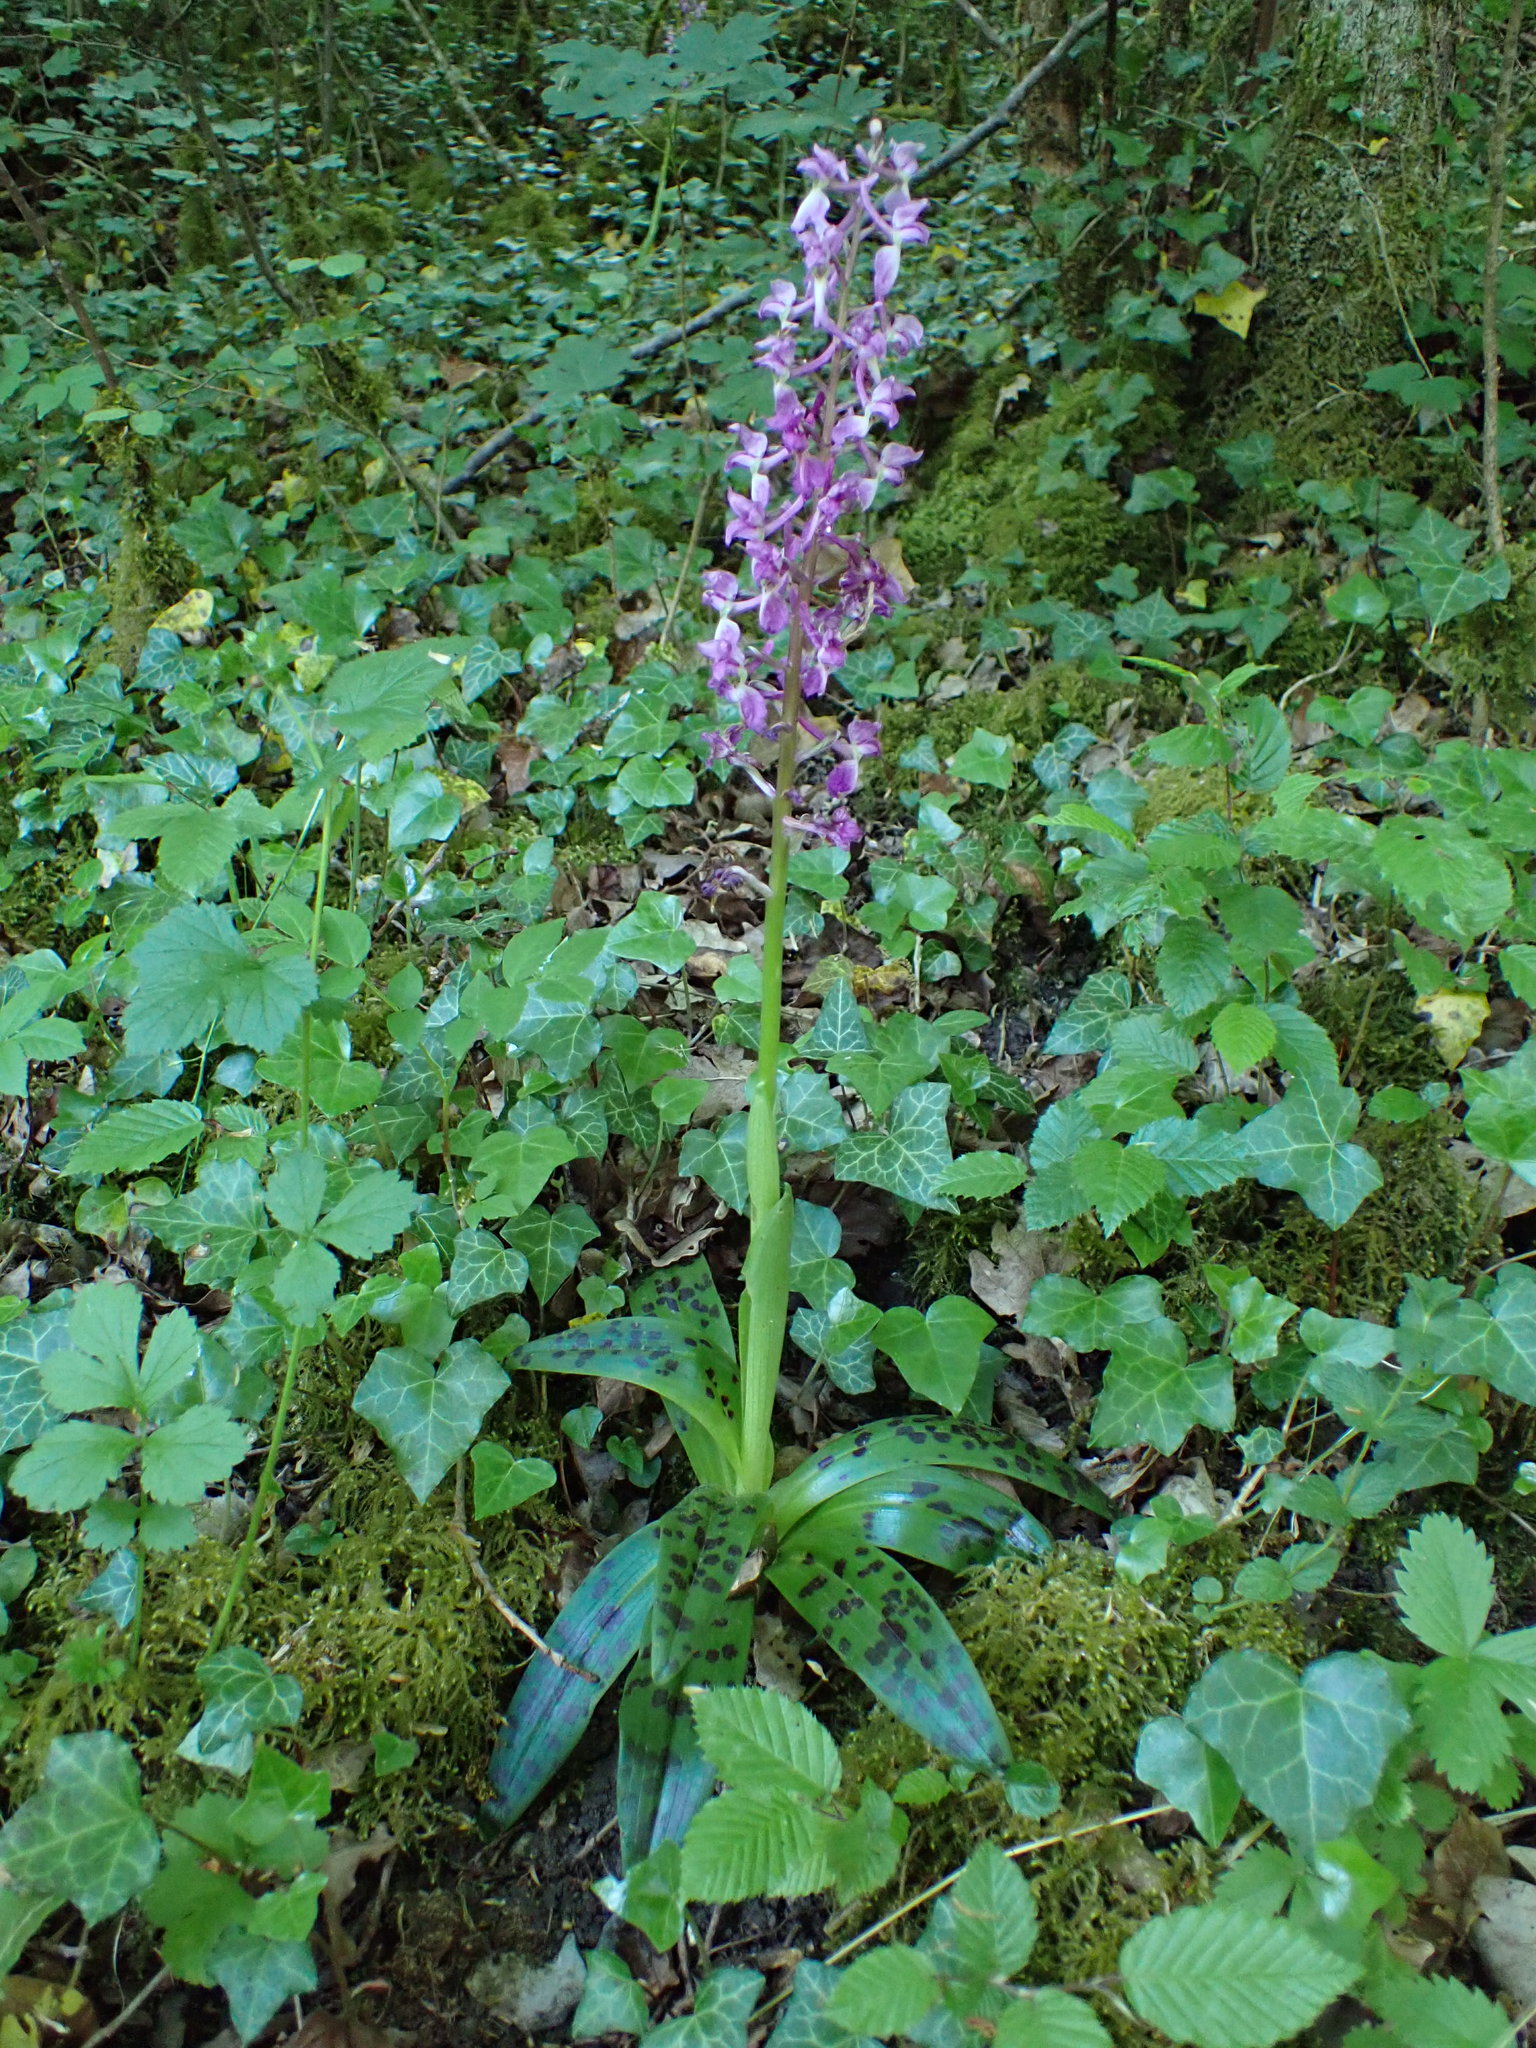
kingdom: Plantae
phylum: Tracheophyta
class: Liliopsida
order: Asparagales
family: Orchidaceae
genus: Orchis
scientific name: Orchis mascula
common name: Early-purple orchid
